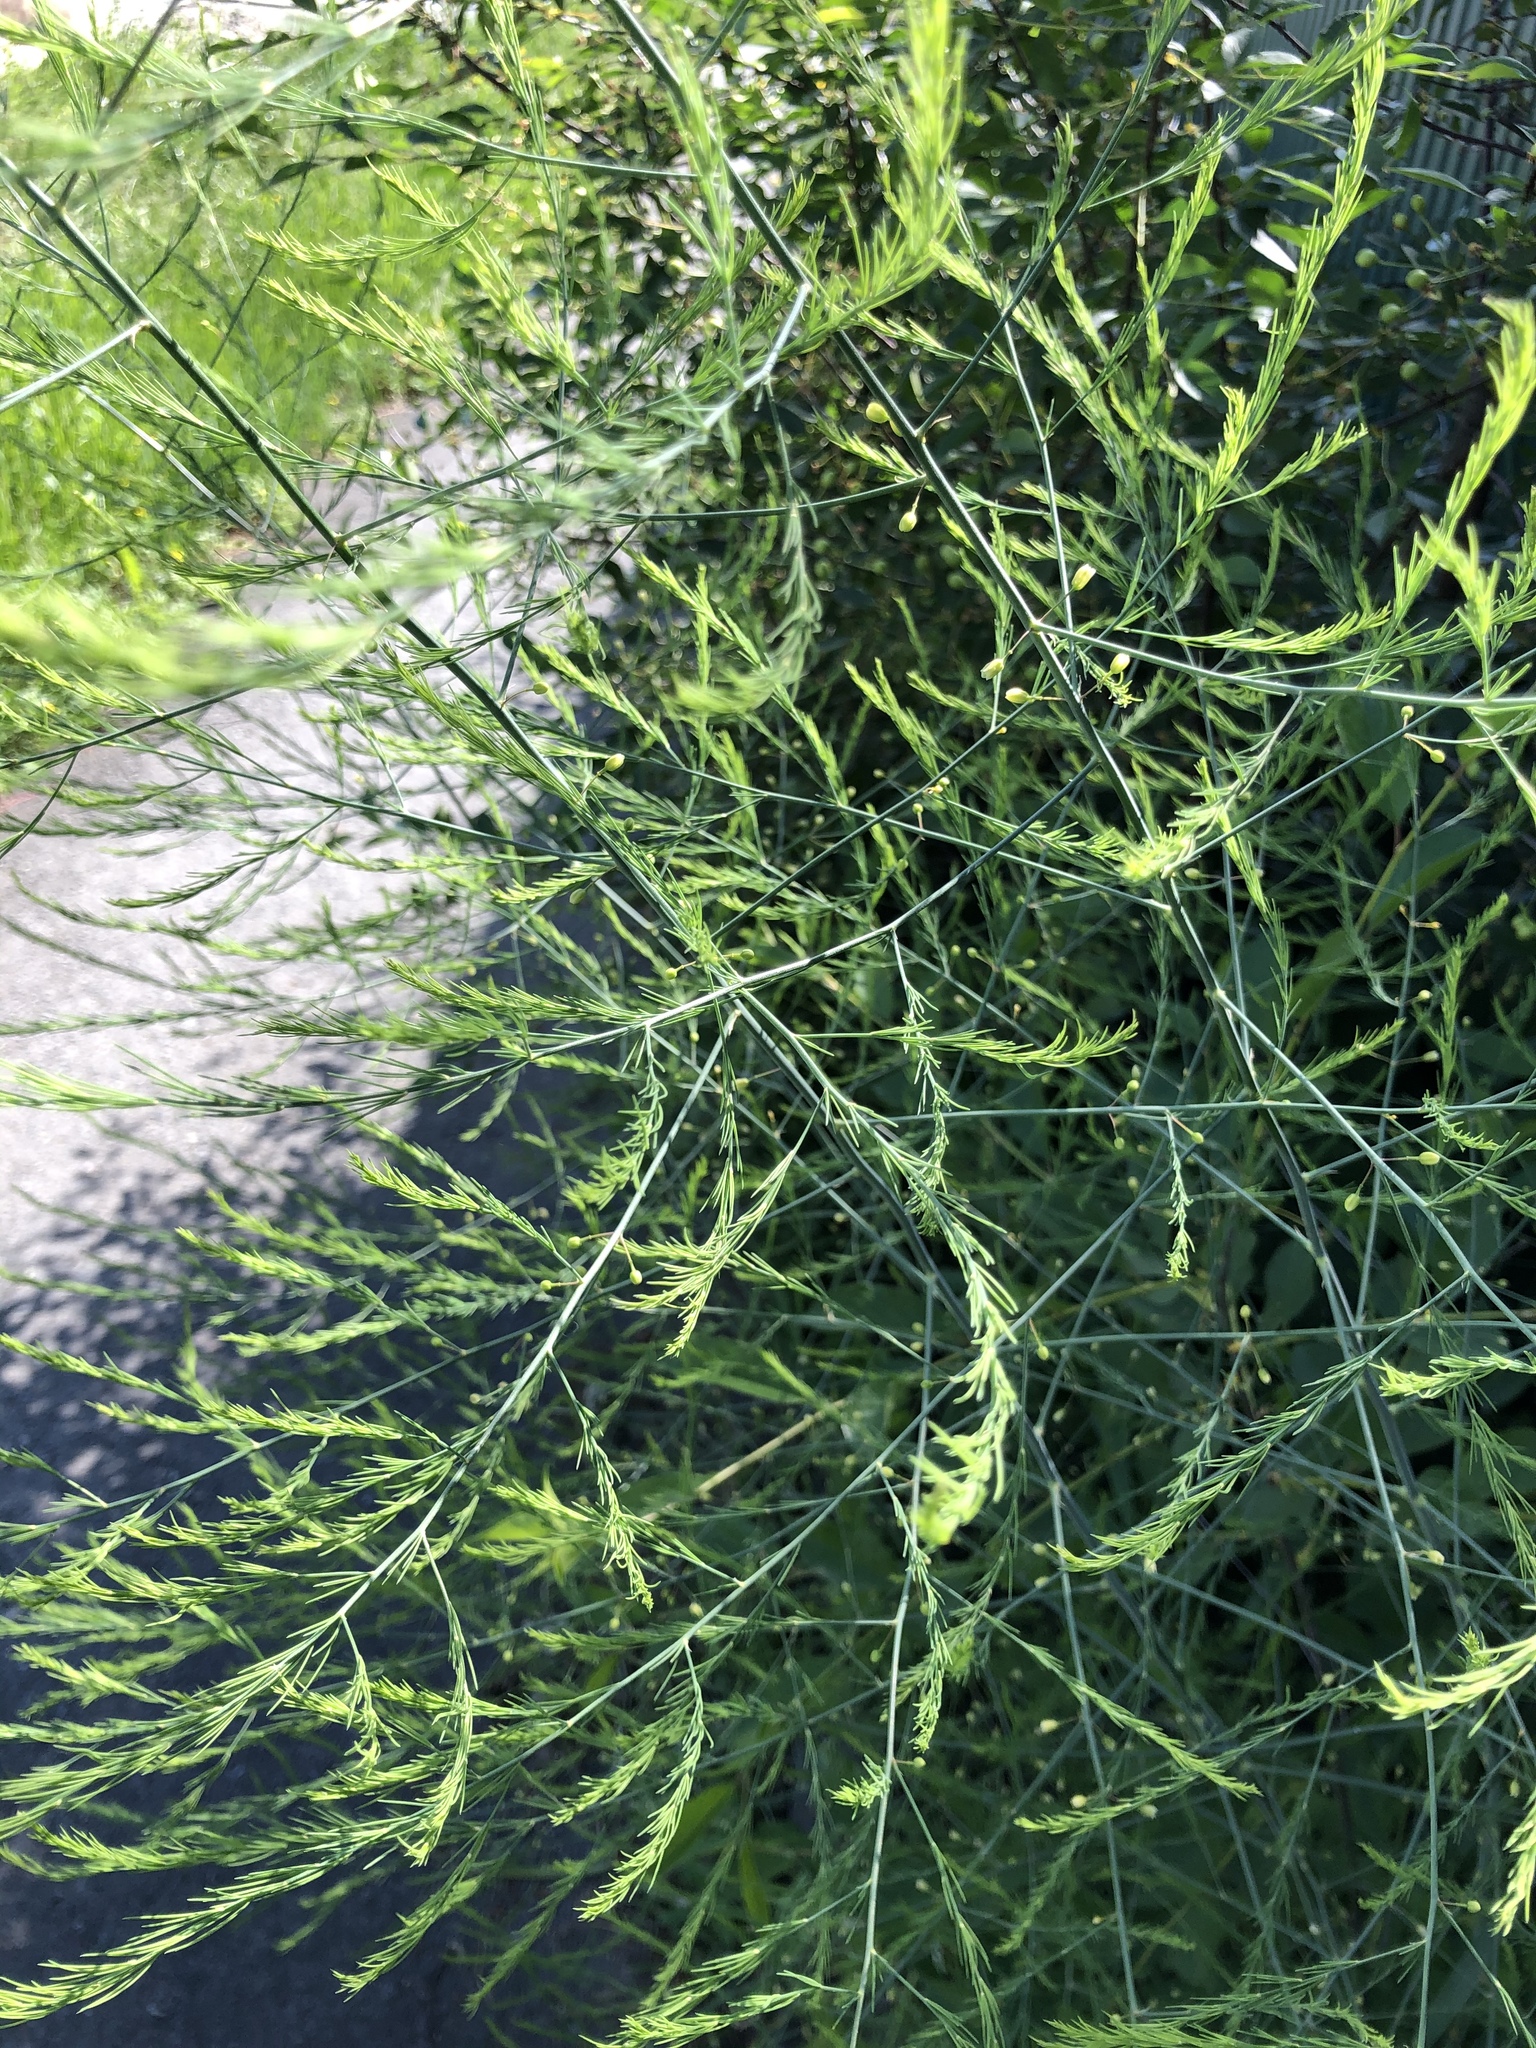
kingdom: Plantae
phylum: Tracheophyta
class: Liliopsida
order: Asparagales
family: Asparagaceae
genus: Asparagus
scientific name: Asparagus officinalis
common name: Garden asparagus
